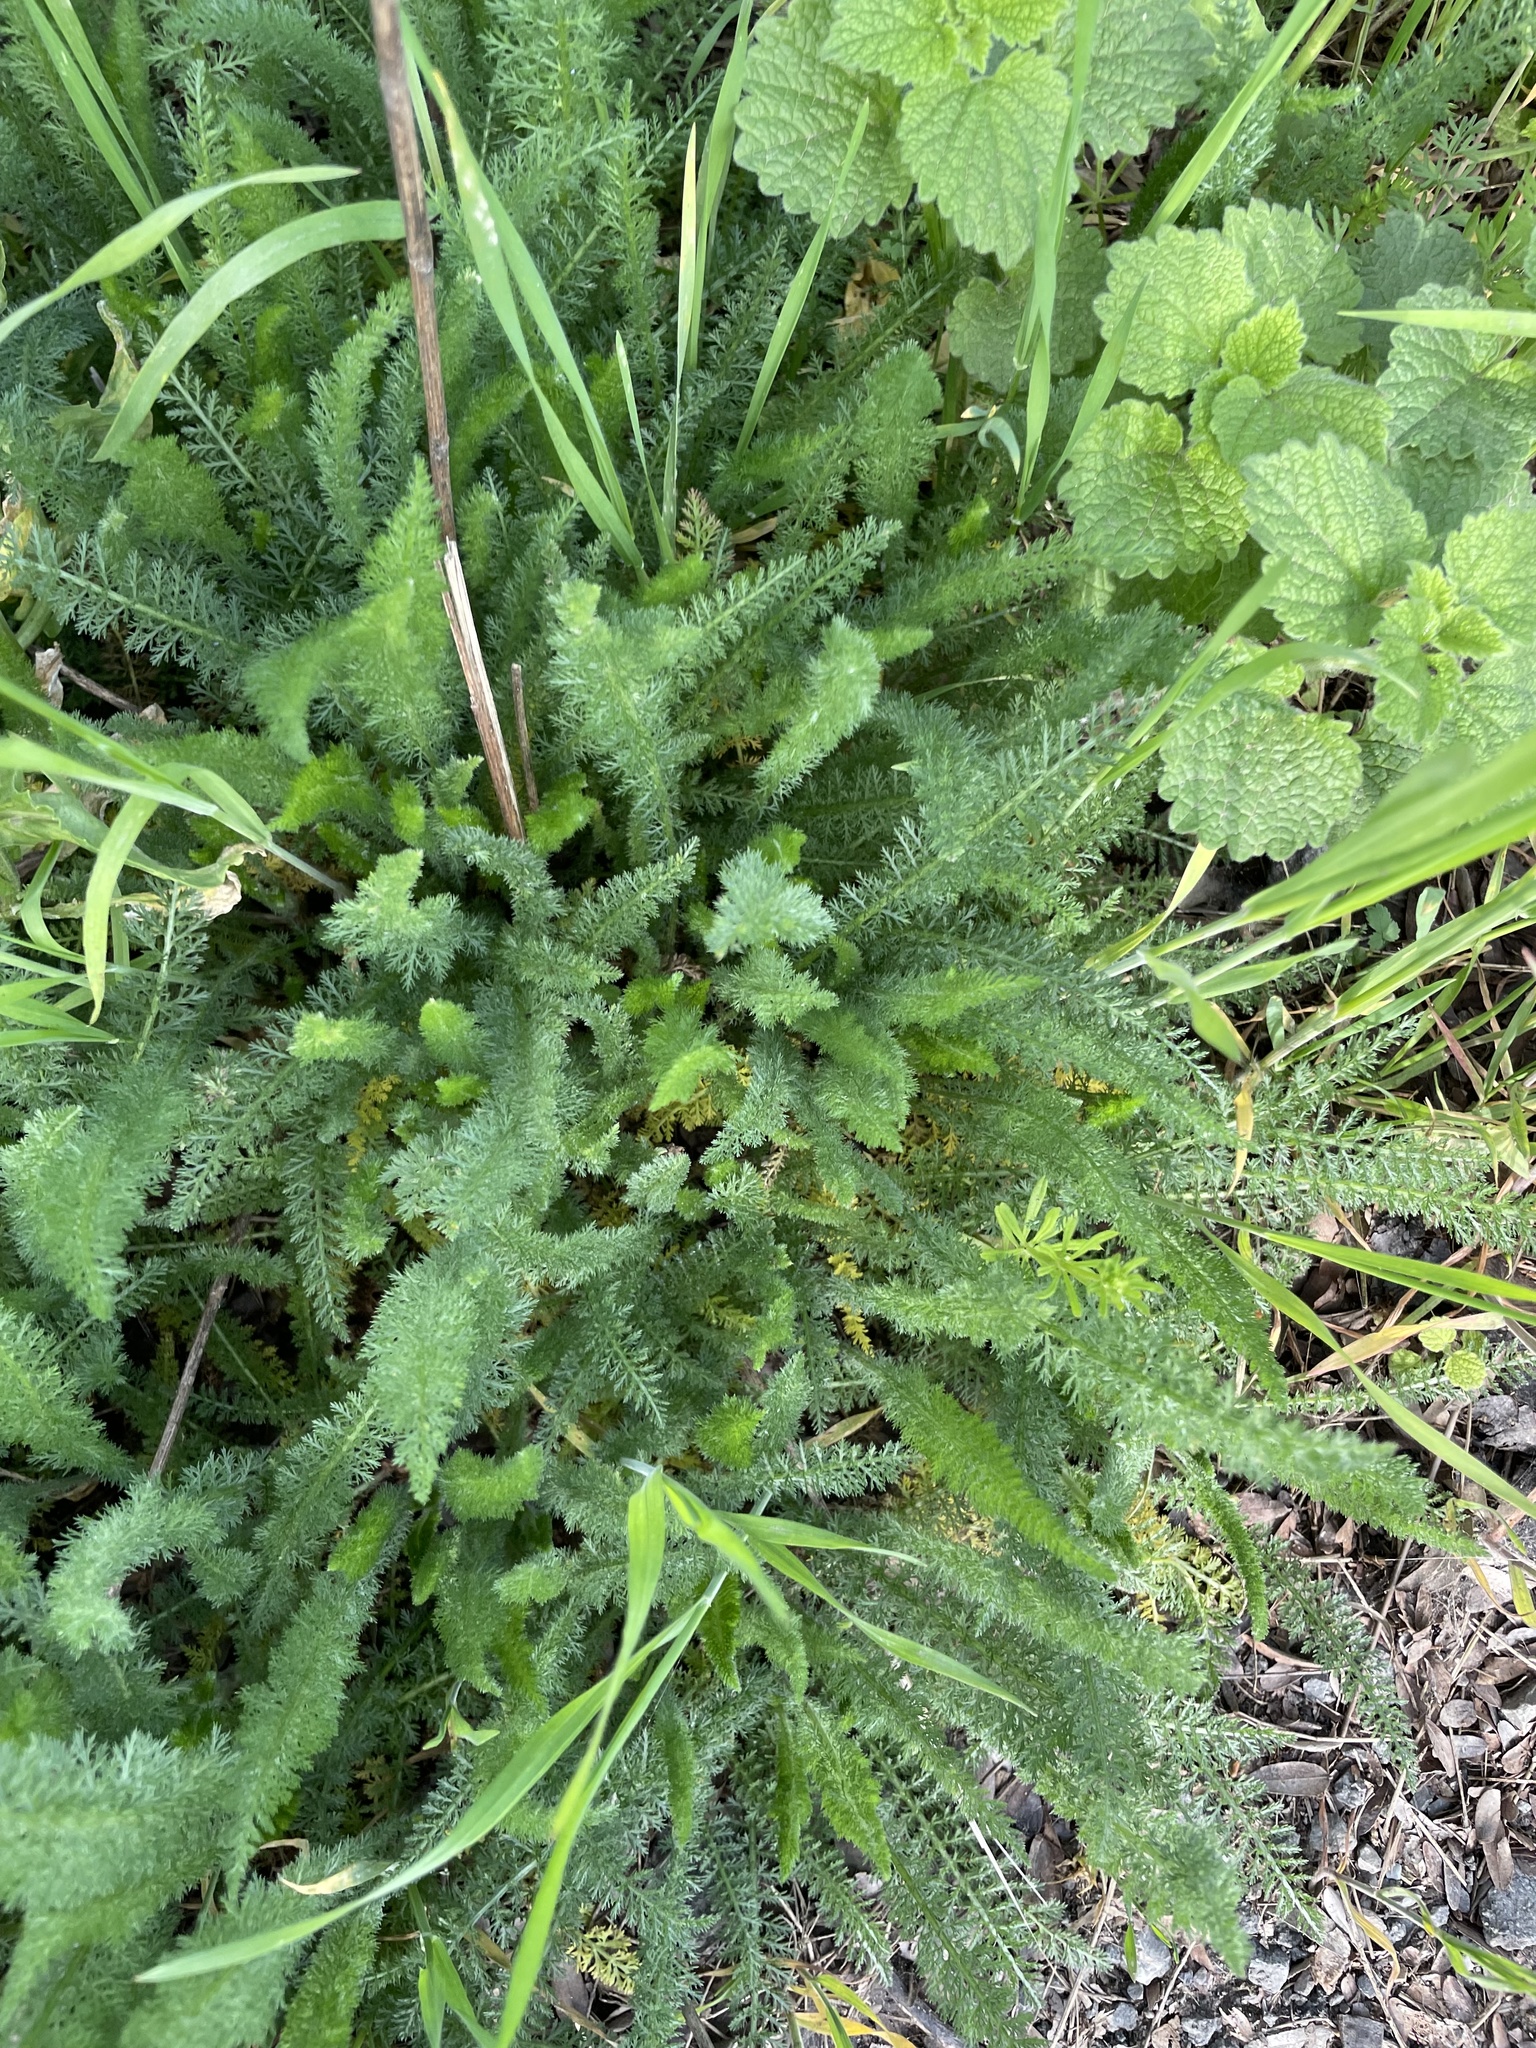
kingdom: Plantae
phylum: Tracheophyta
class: Magnoliopsida
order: Asterales
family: Asteraceae
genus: Achillea
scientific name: Achillea millefolium
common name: Yarrow
